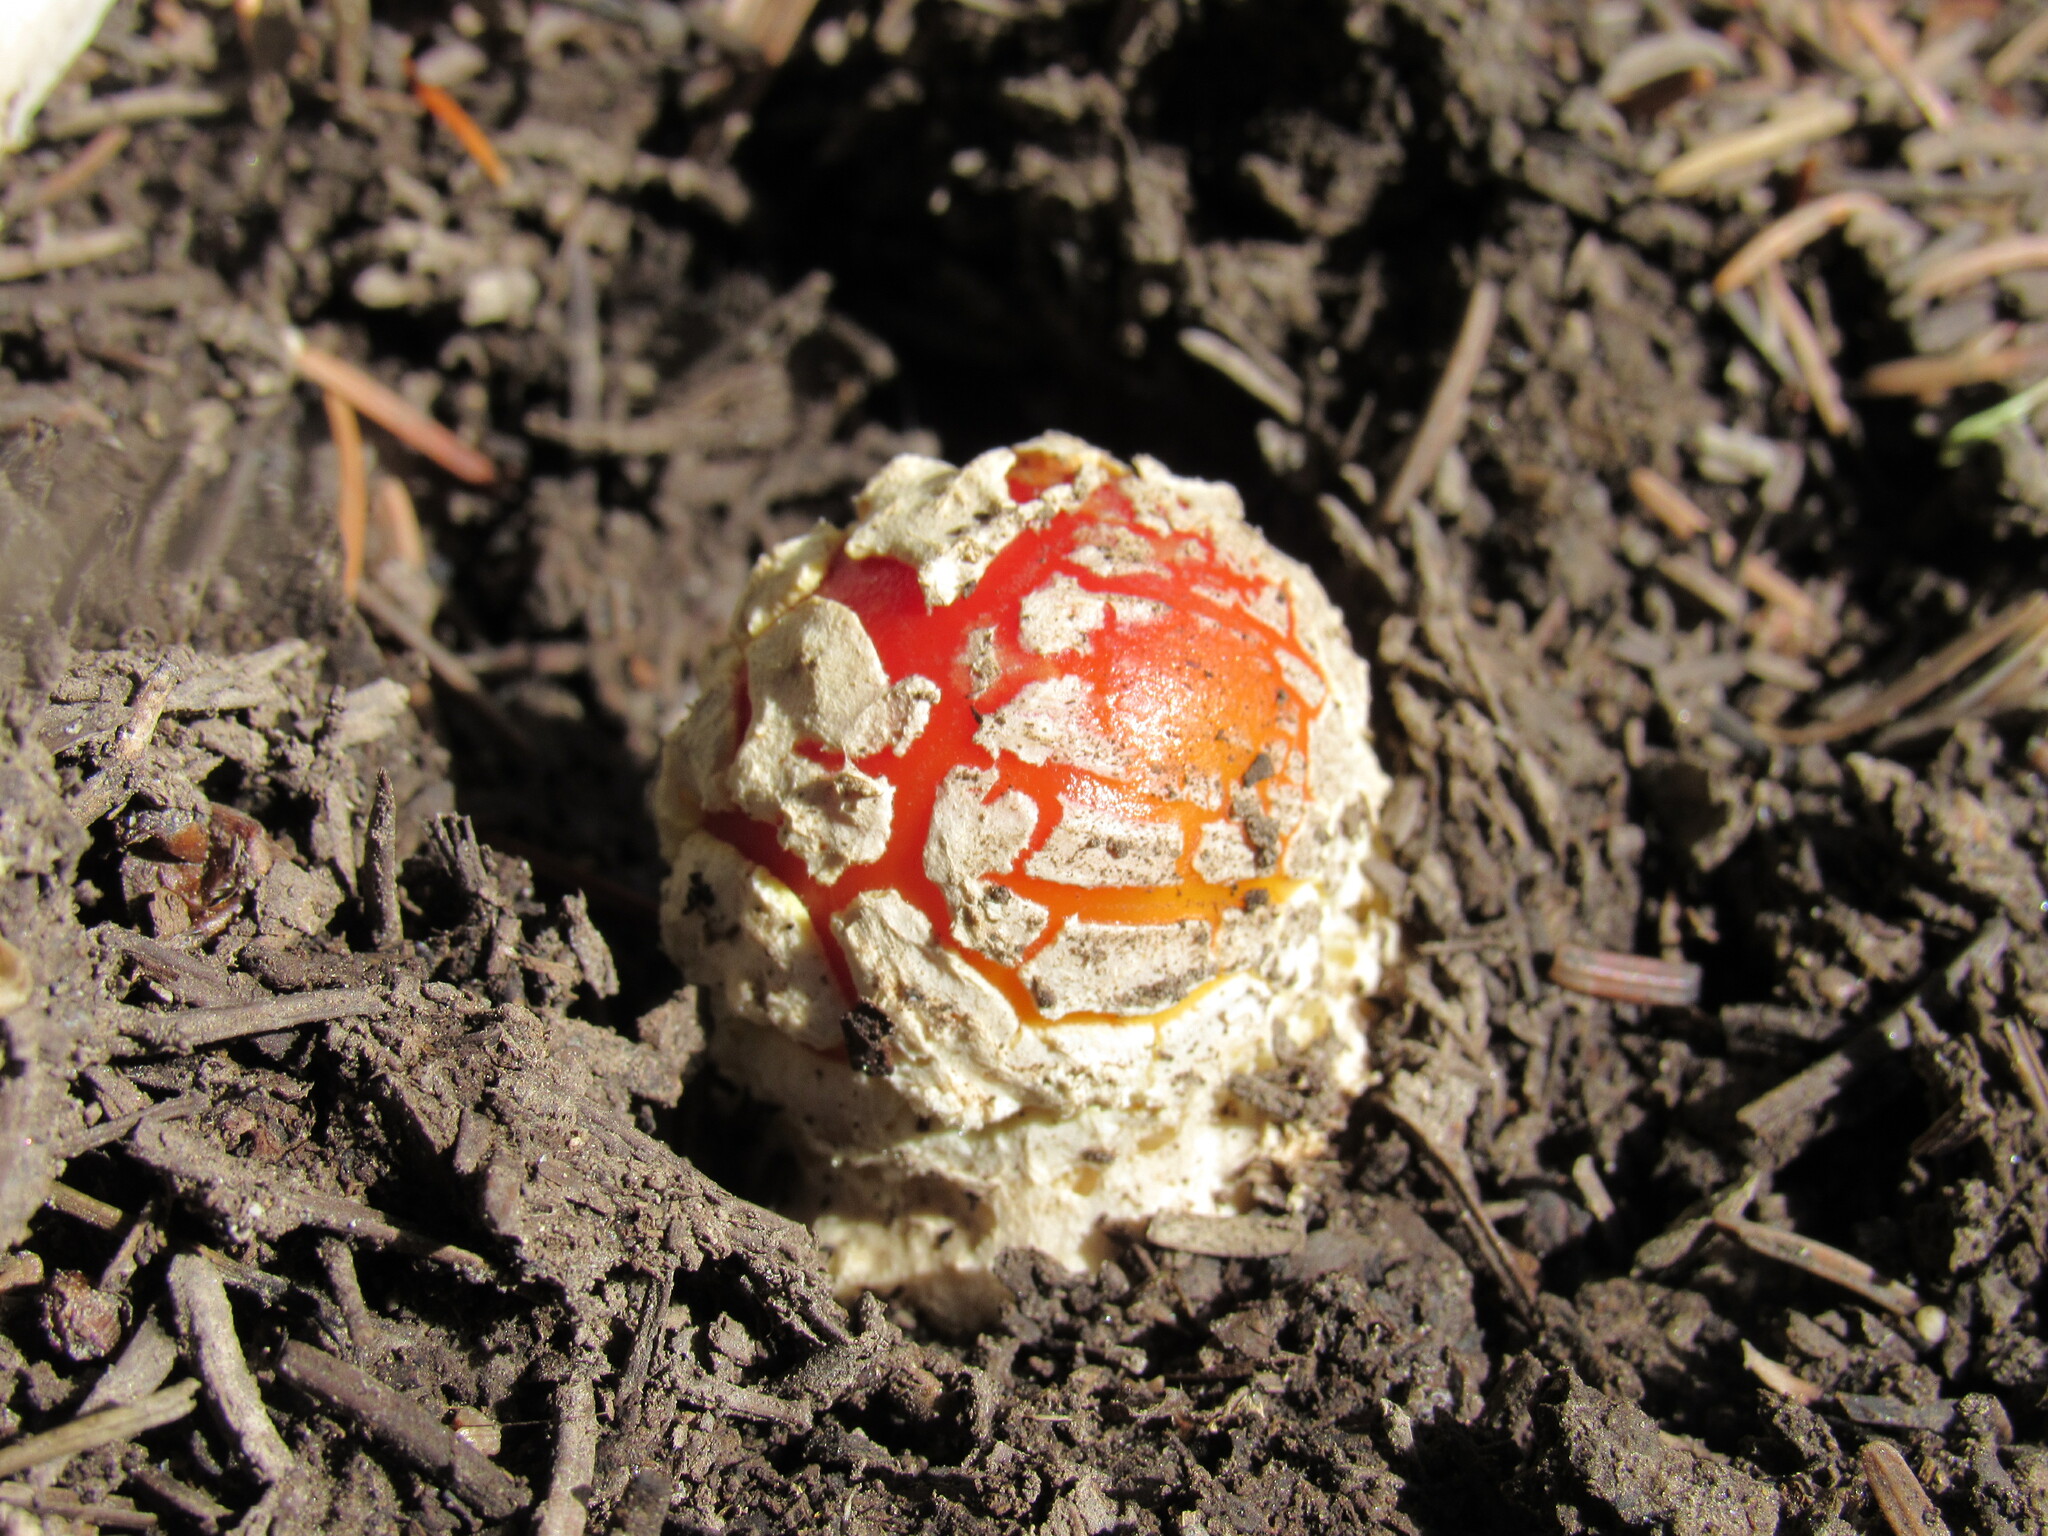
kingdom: Fungi
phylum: Basidiomycota
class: Agaricomycetes
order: Agaricales
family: Amanitaceae
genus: Amanita
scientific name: Amanita muscaria
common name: Fly agaric
